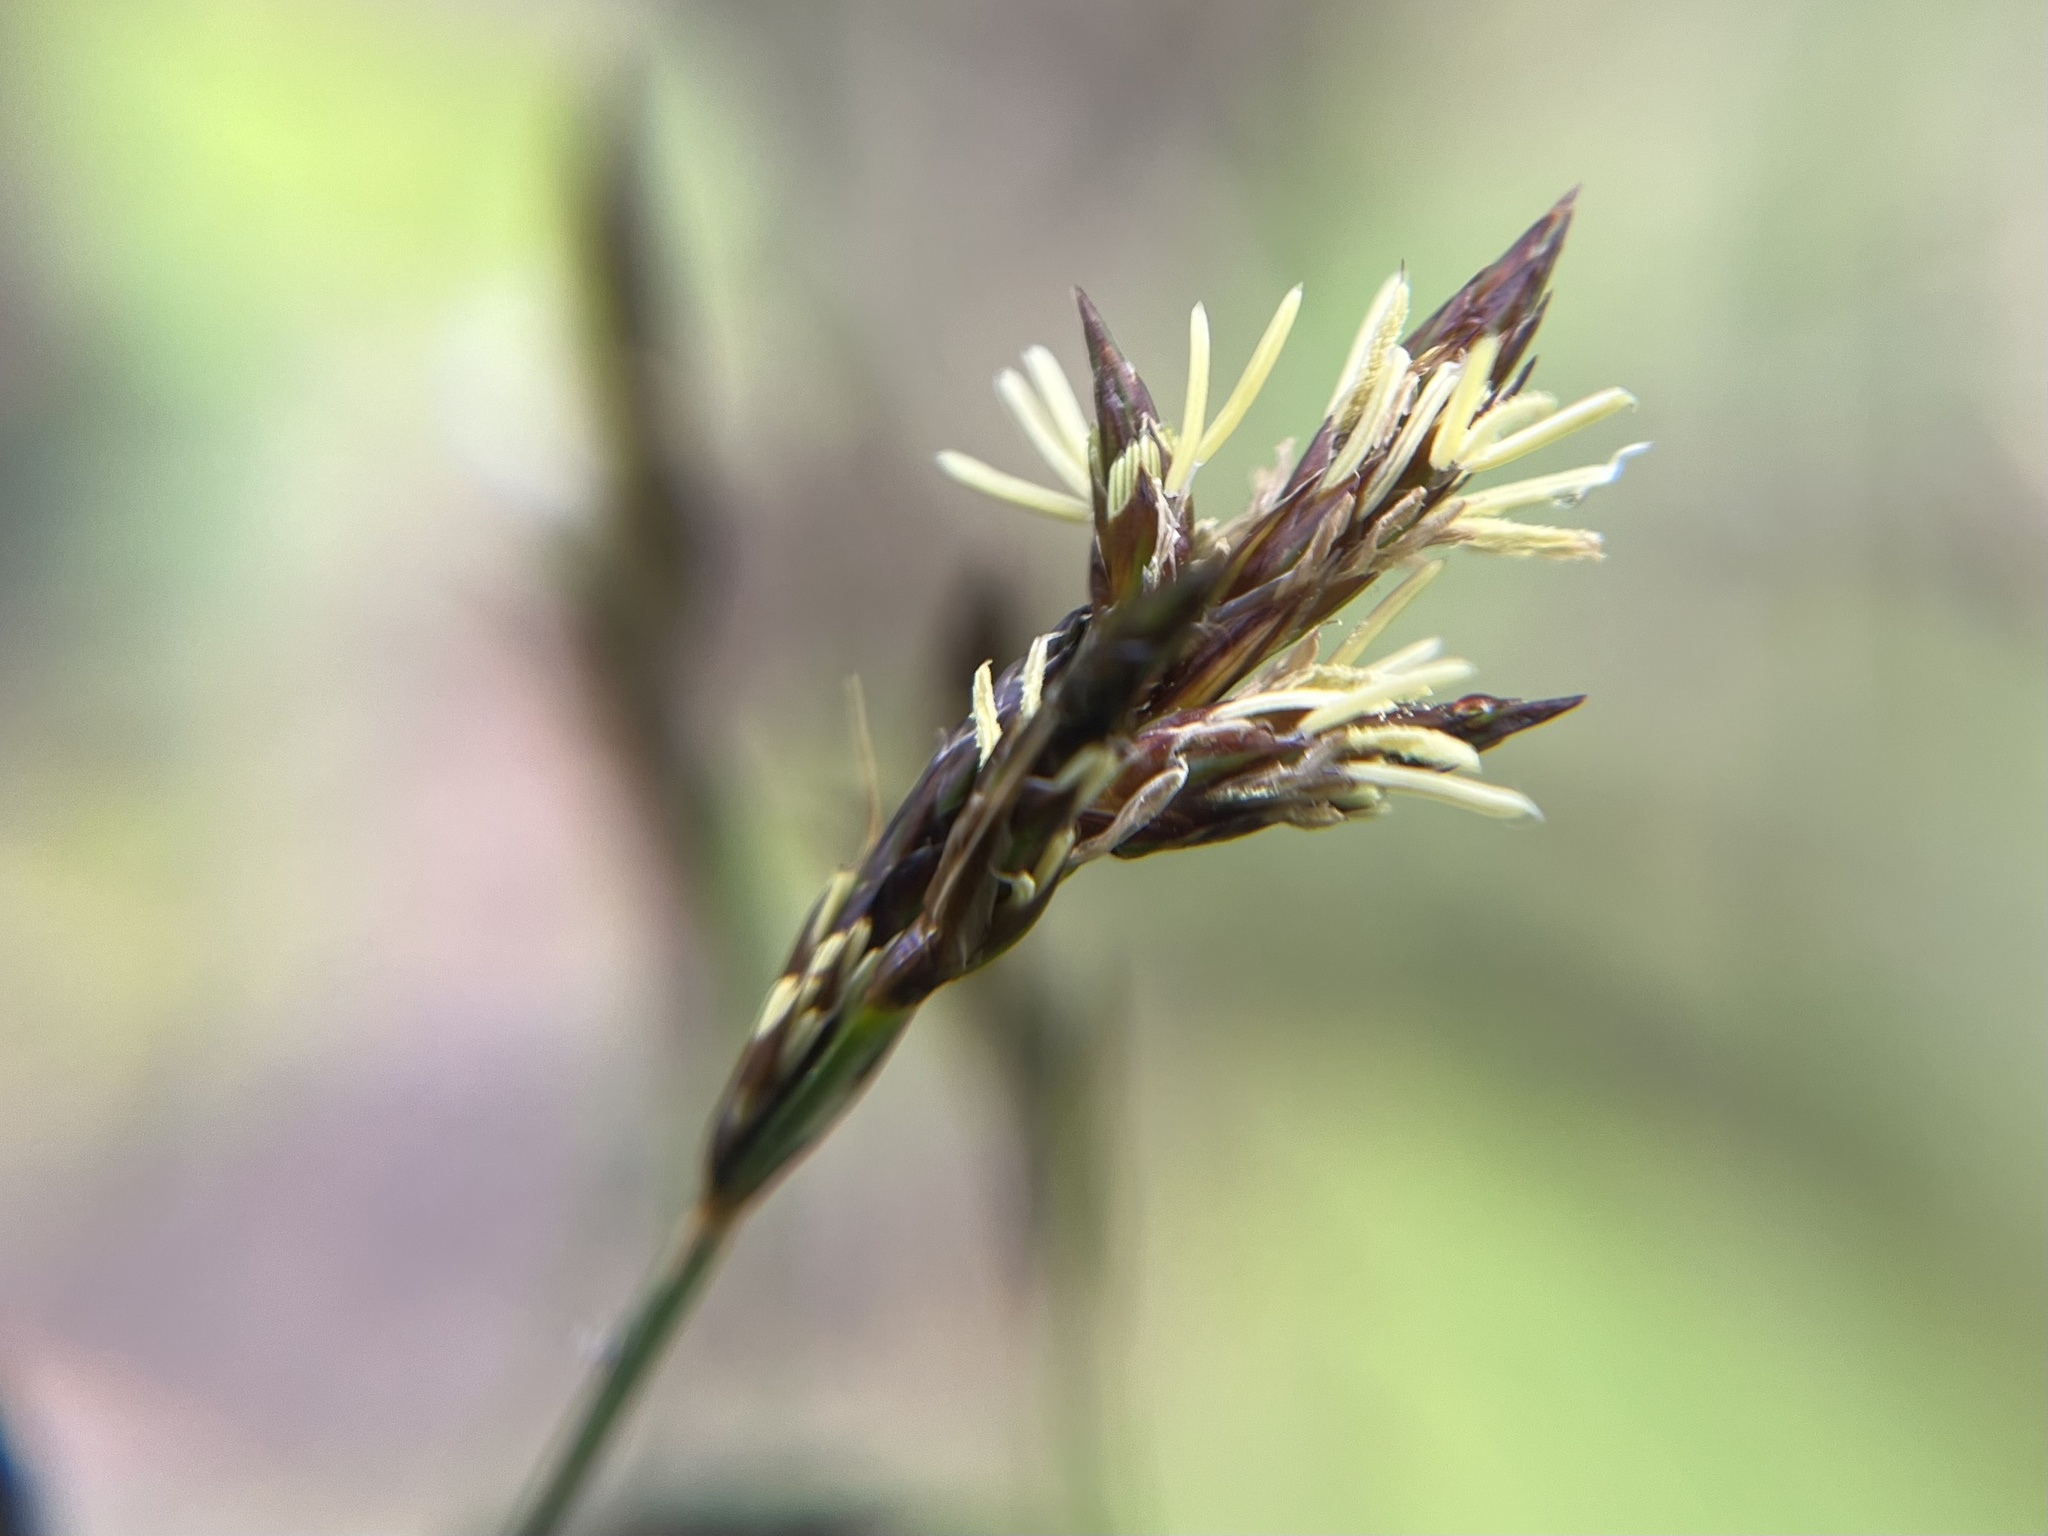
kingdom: Plantae
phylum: Tracheophyta
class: Liliopsida
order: Poales
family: Cyperaceae
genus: Carex
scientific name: Carex praecox
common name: Early sedge
